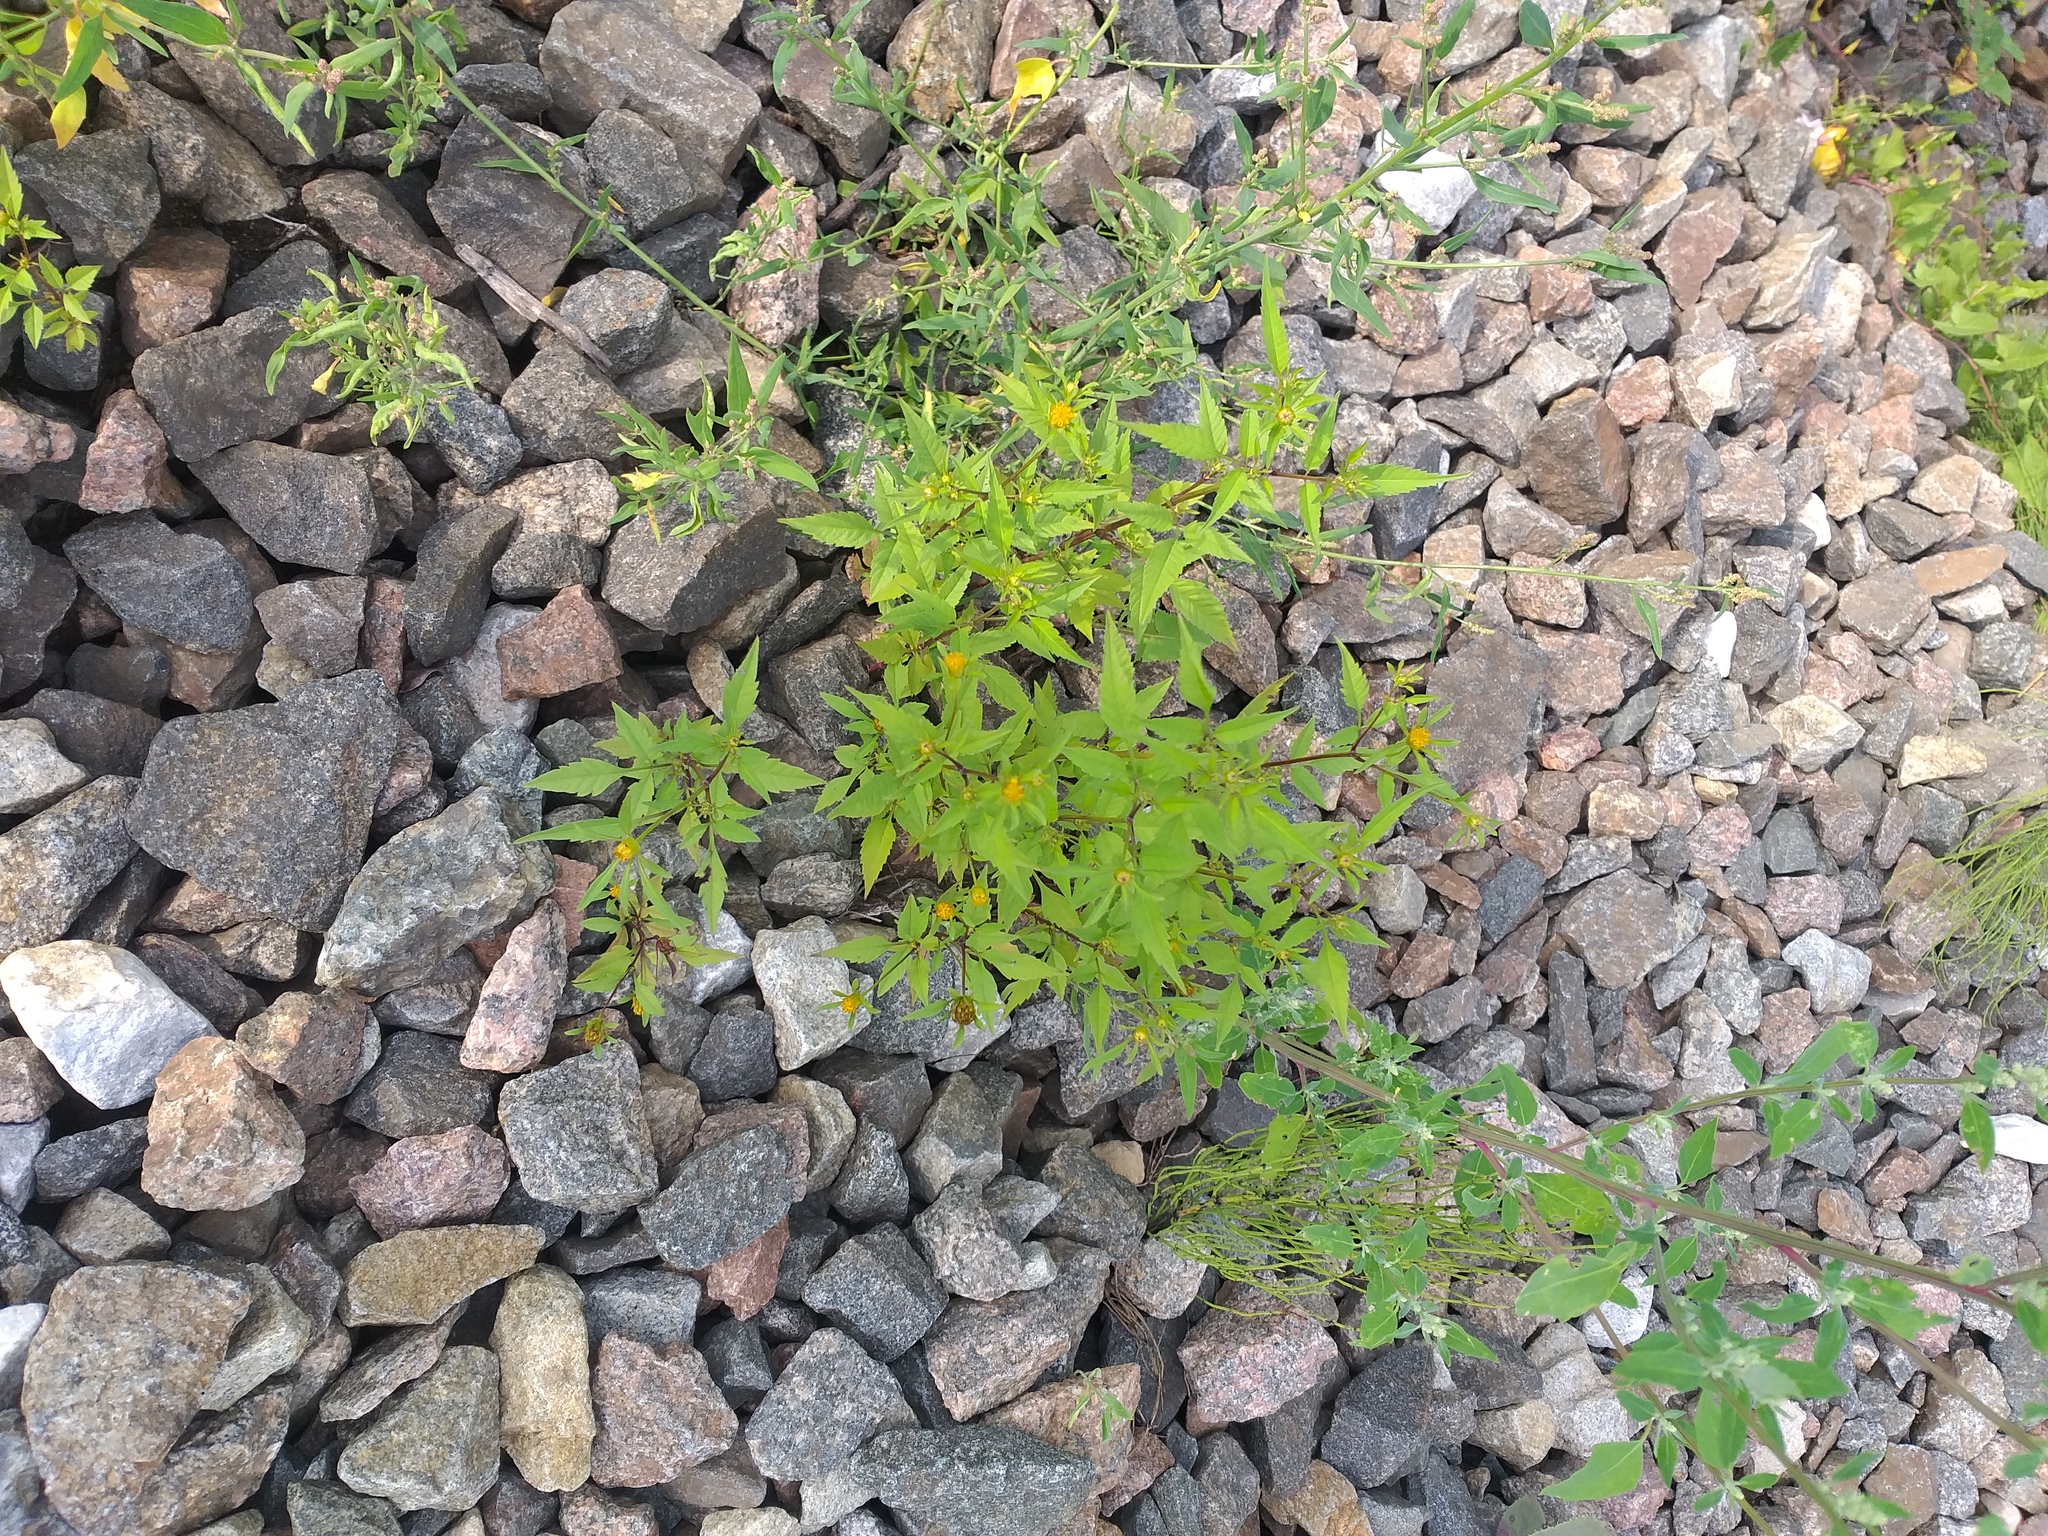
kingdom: Plantae
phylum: Tracheophyta
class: Magnoliopsida
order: Asterales
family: Asteraceae
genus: Bidens
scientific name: Bidens frondosa
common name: Beggarticks
